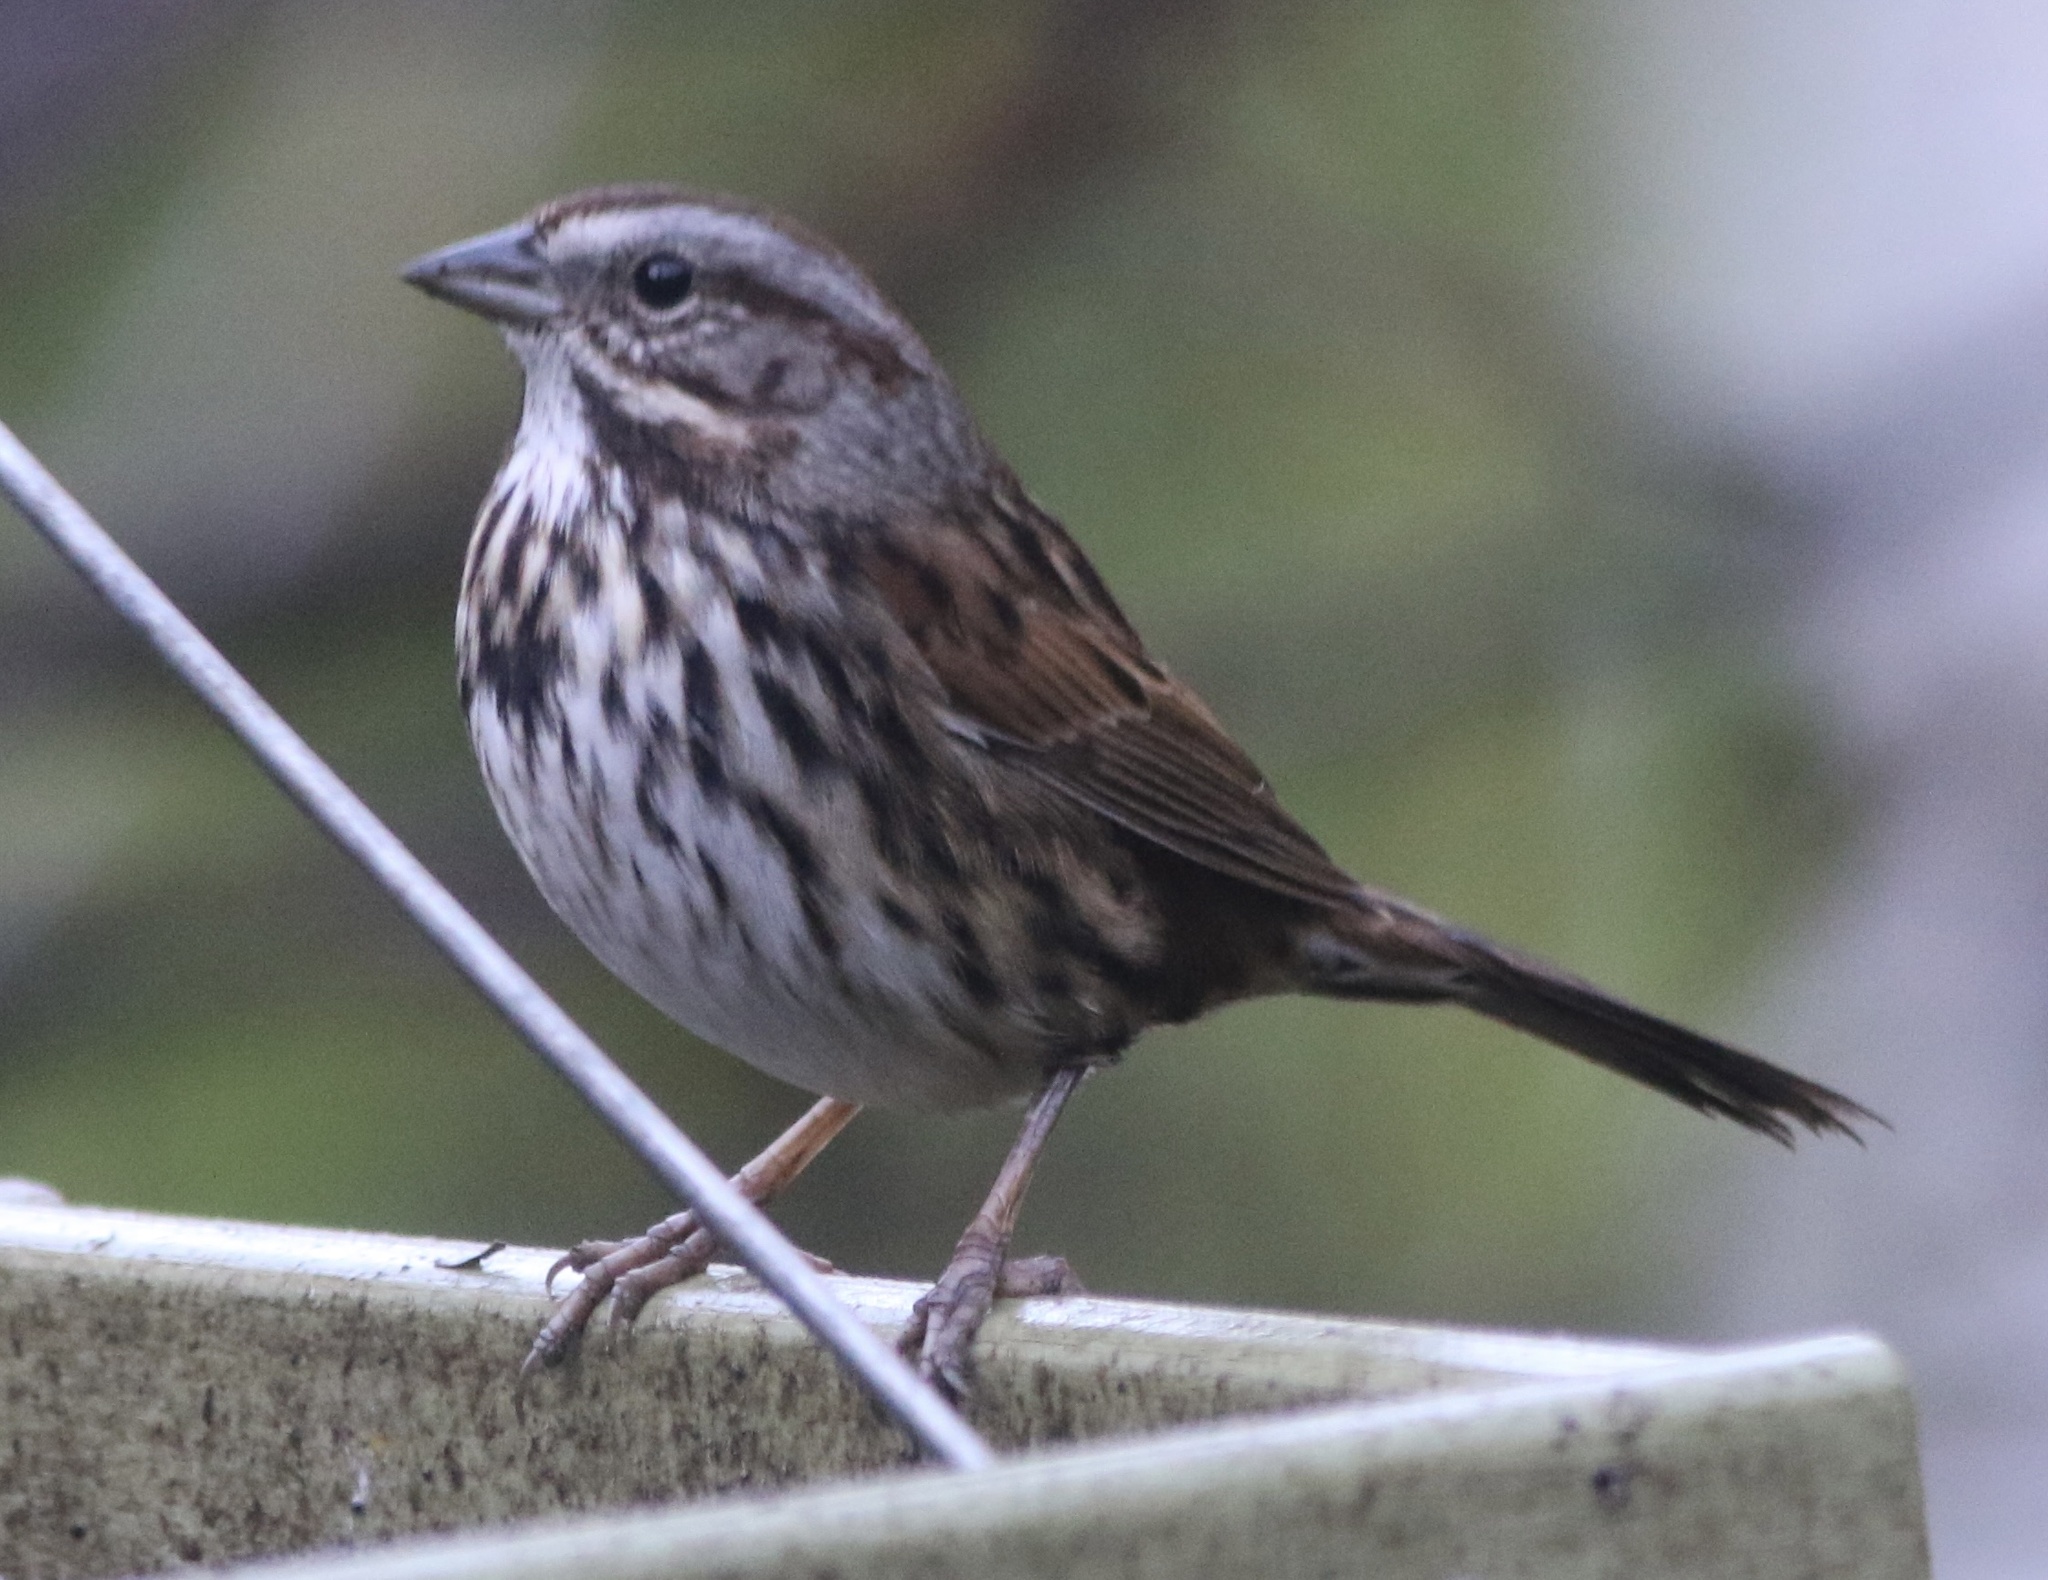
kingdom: Animalia
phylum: Chordata
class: Aves
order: Passeriformes
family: Passerellidae
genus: Melospiza
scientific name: Melospiza melodia
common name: Song sparrow
